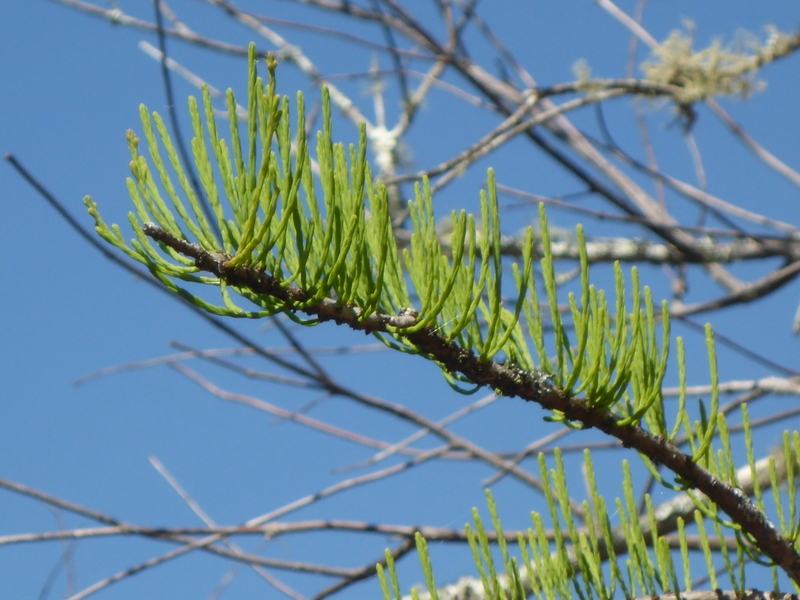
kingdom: Plantae
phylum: Tracheophyta
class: Pinopsida
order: Pinales
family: Cupressaceae
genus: Taxodium
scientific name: Taxodium distichum
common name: Bald cypress
